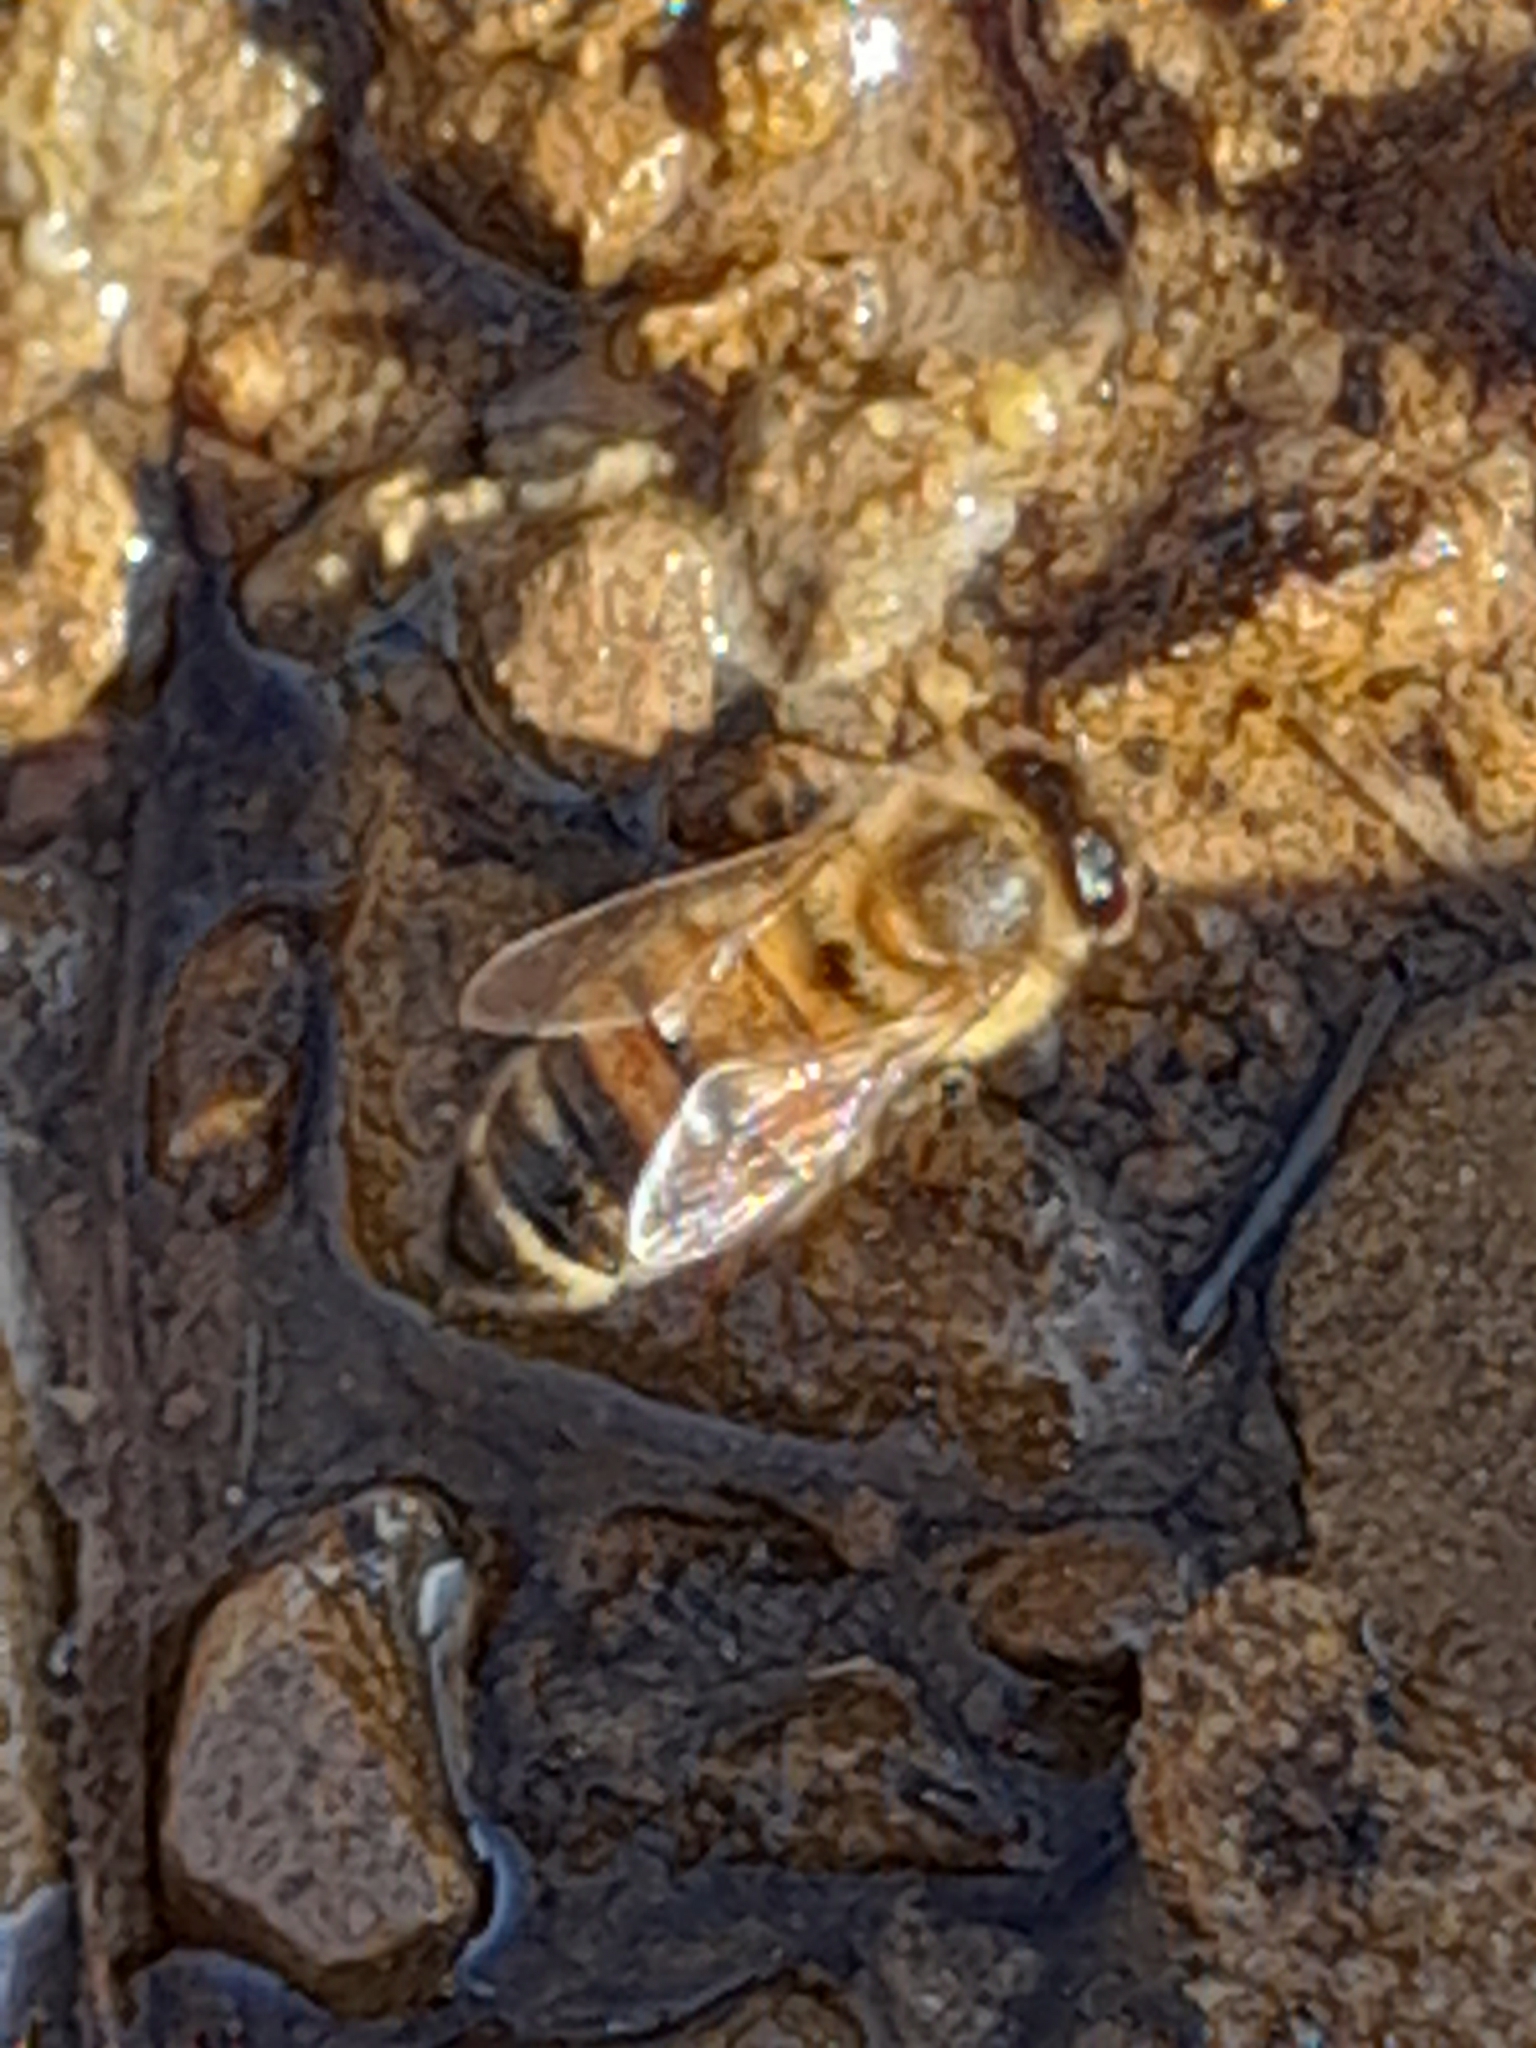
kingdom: Animalia
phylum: Arthropoda
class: Insecta
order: Hymenoptera
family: Apidae
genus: Apis
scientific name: Apis mellifera
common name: Honey bee
